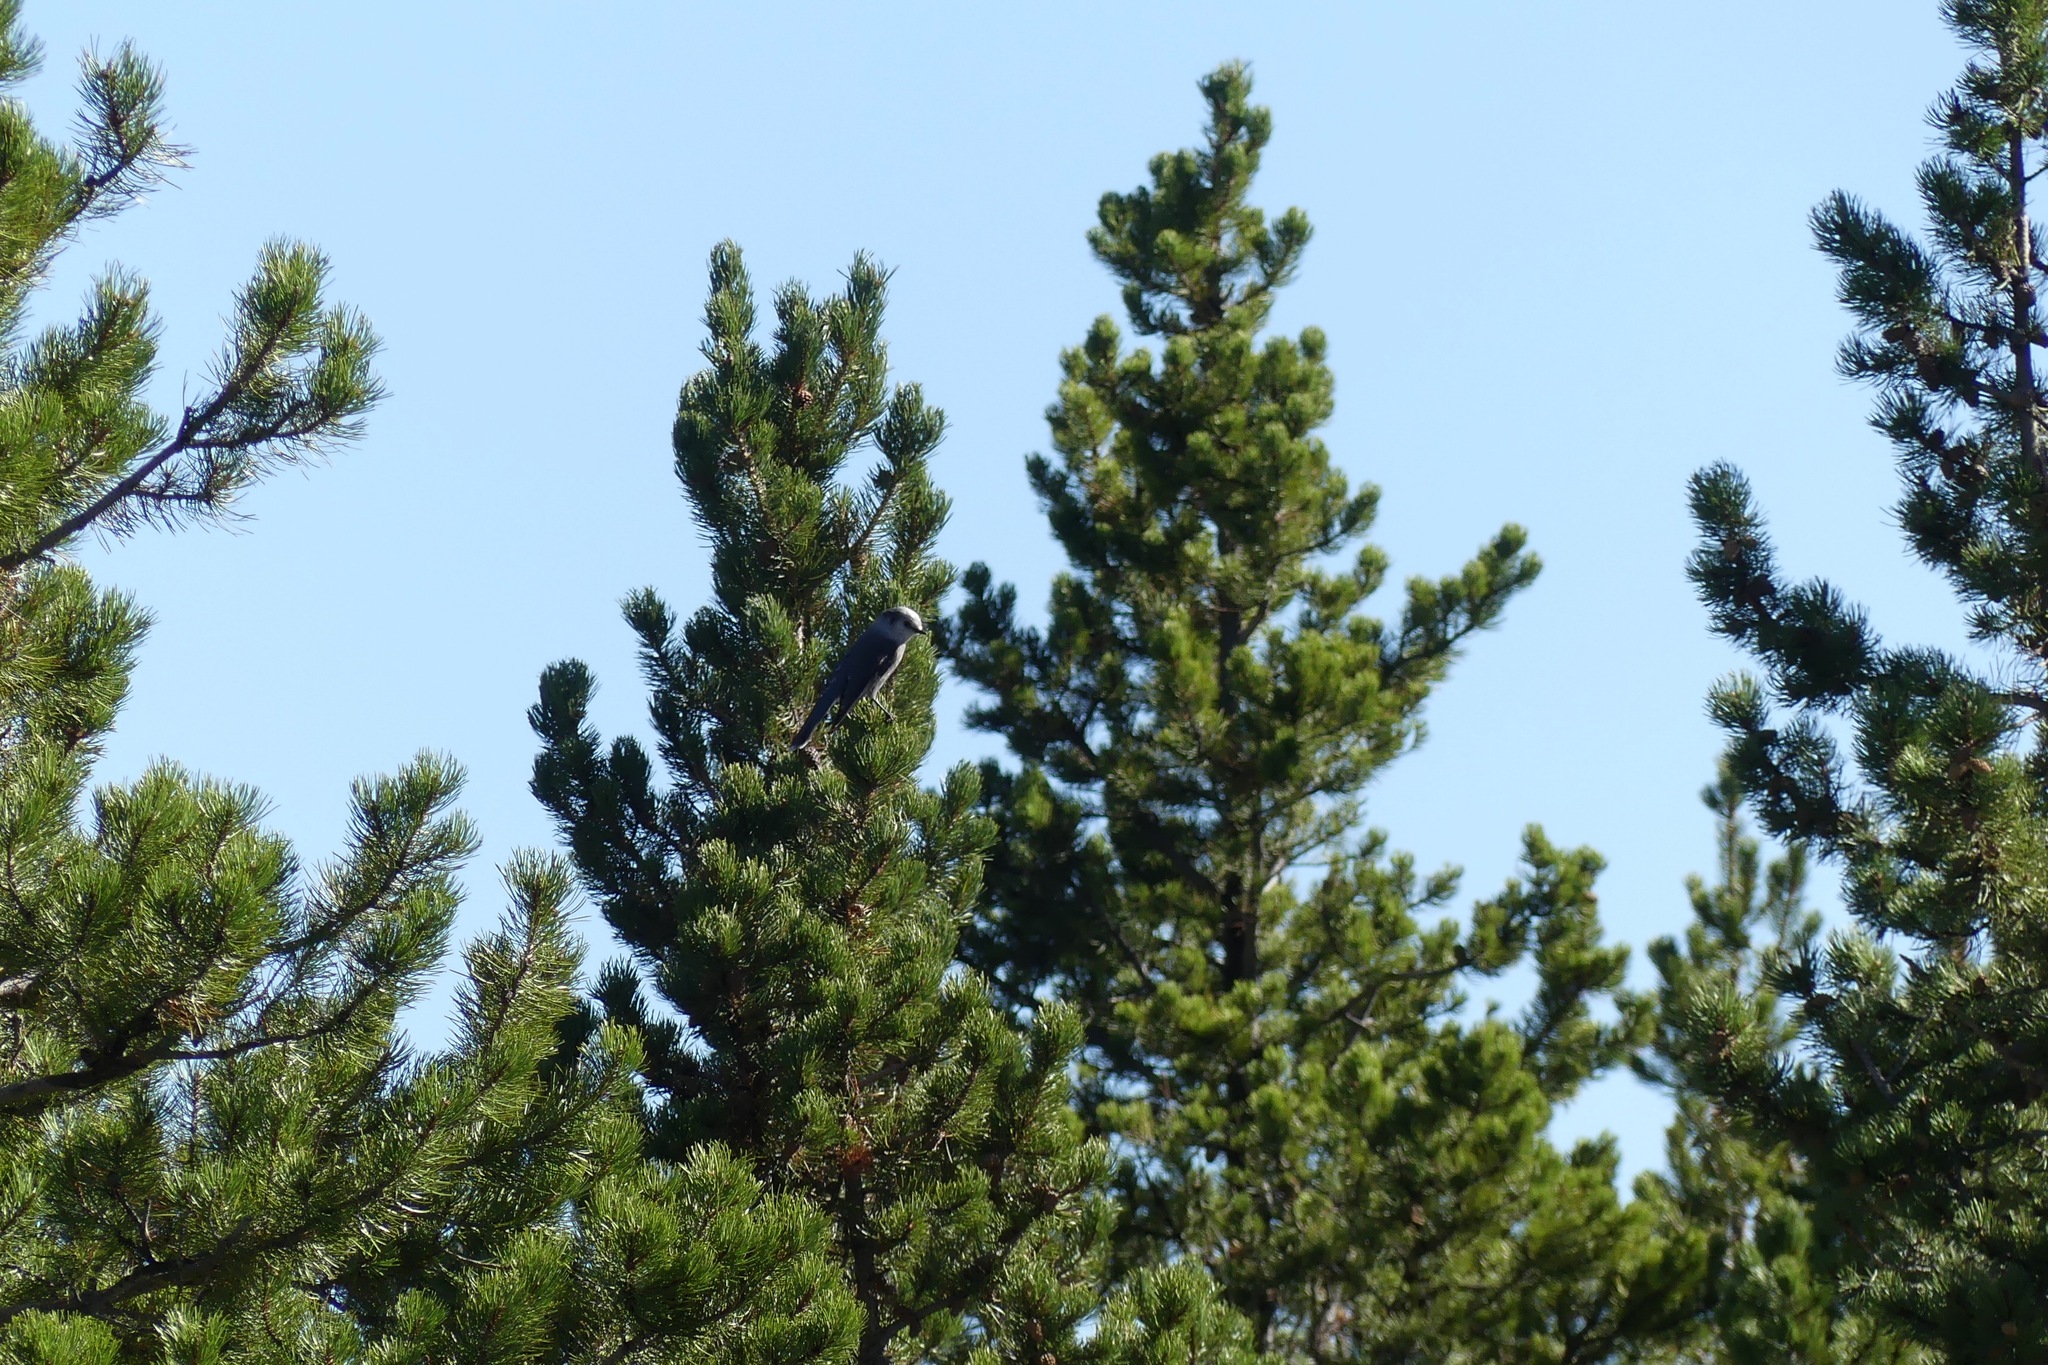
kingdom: Animalia
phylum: Chordata
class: Aves
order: Passeriformes
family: Corvidae
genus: Perisoreus
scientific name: Perisoreus canadensis
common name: Gray jay
